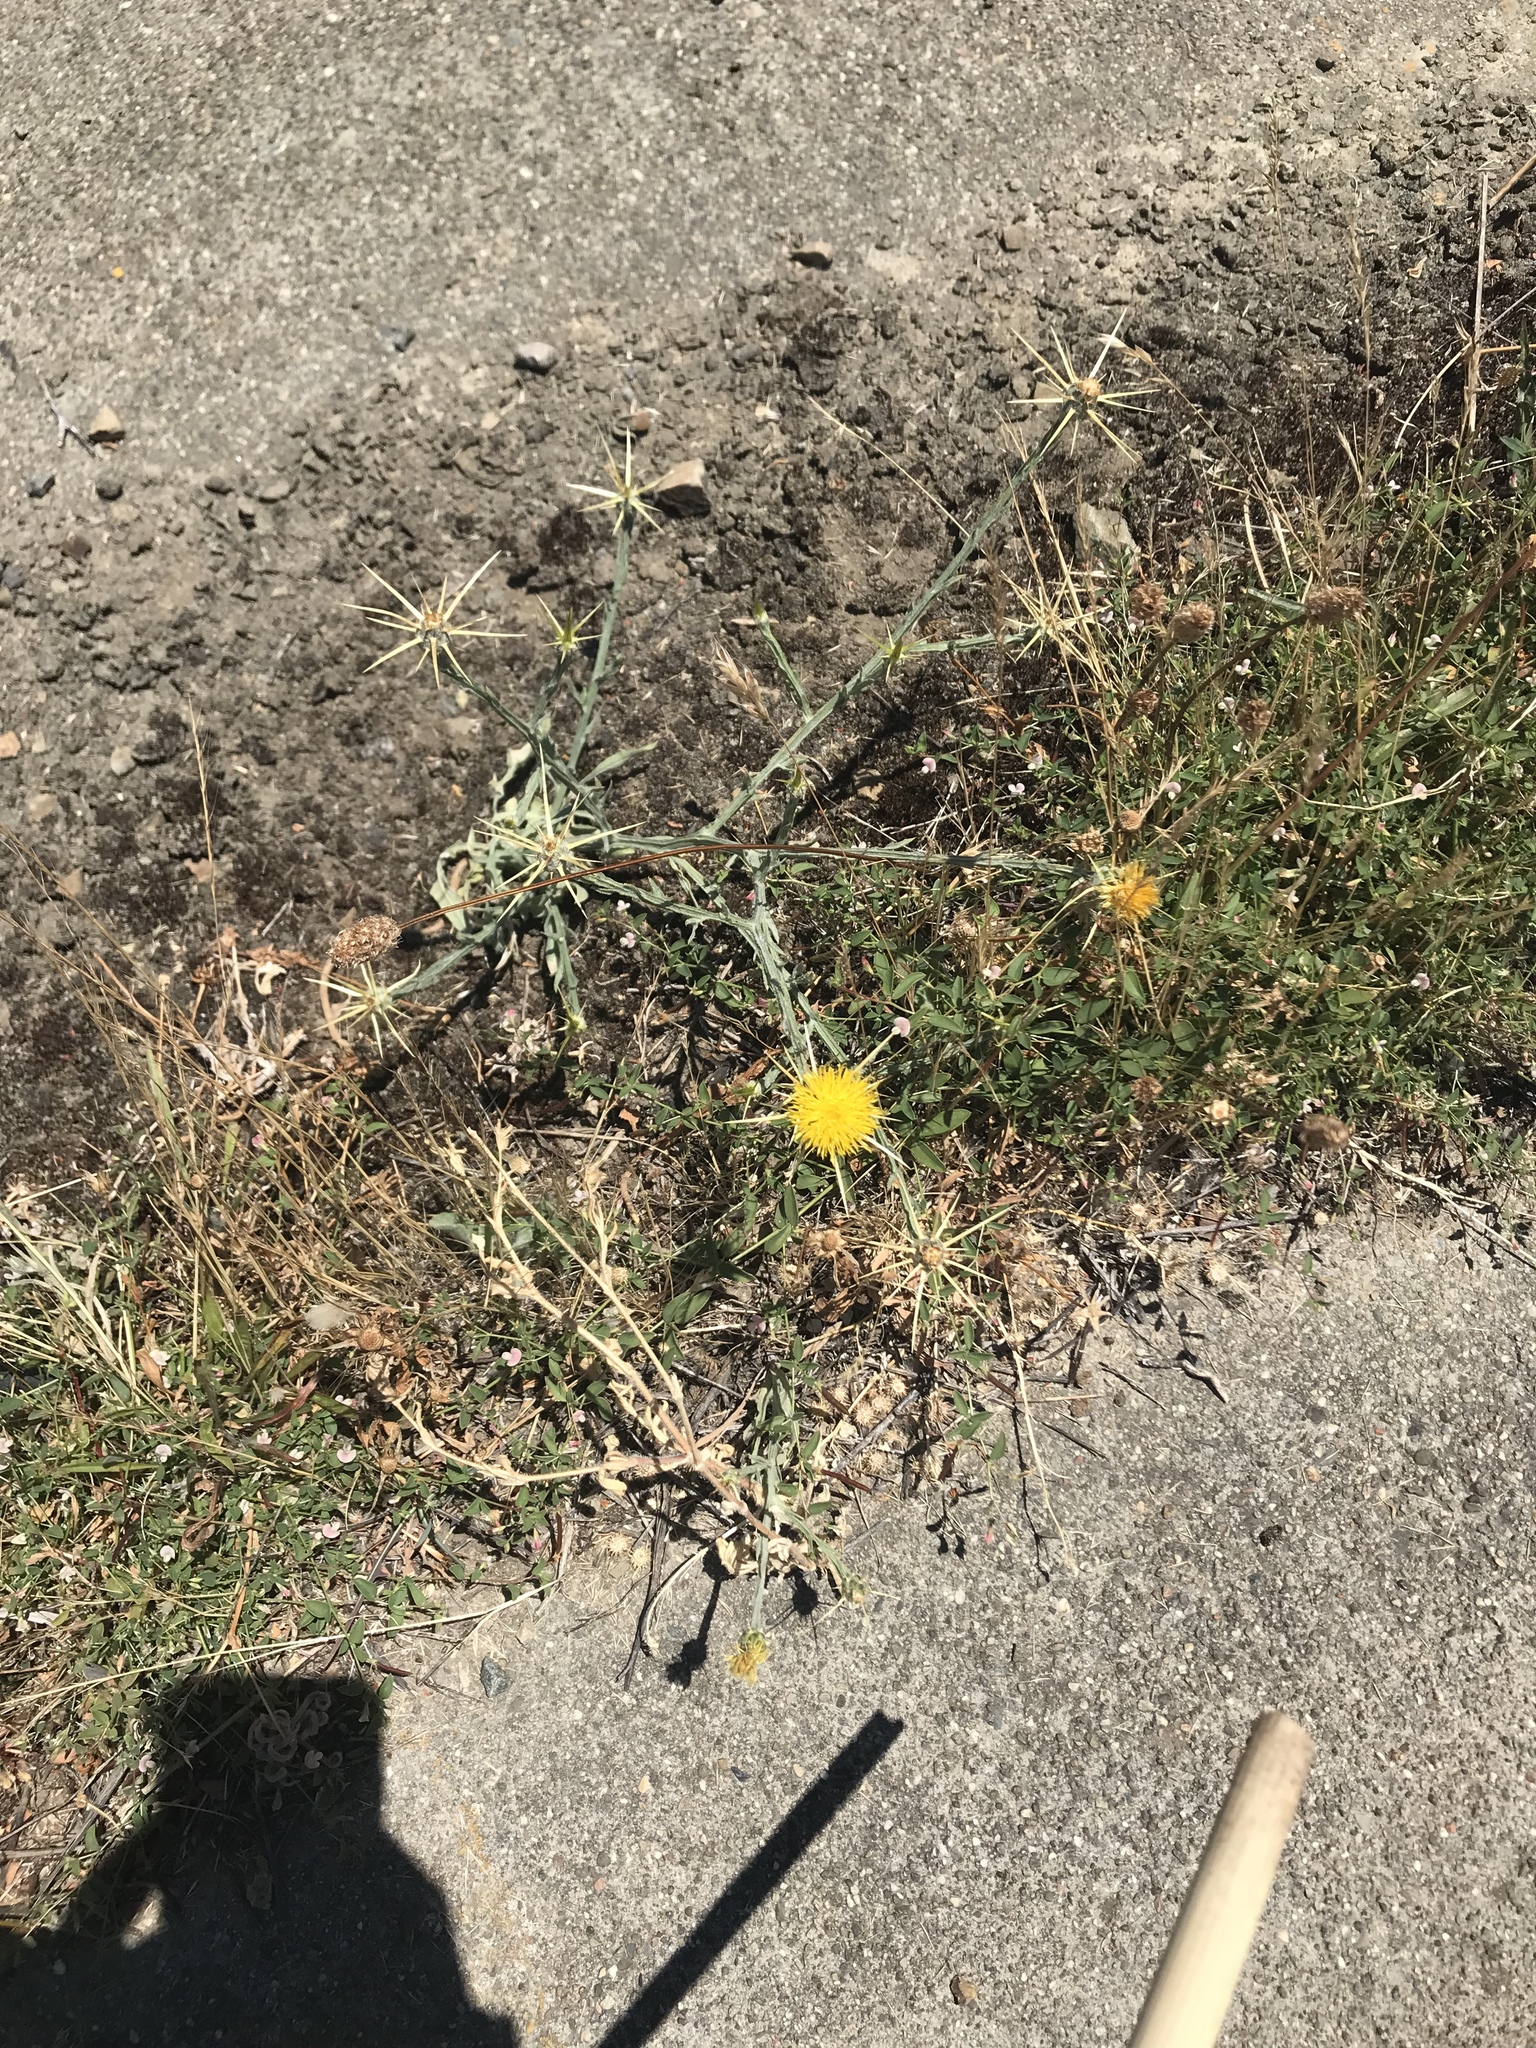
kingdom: Plantae
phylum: Tracheophyta
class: Magnoliopsida
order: Asterales
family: Asteraceae
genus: Centaurea
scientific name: Centaurea solstitialis
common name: Yellow star-thistle
